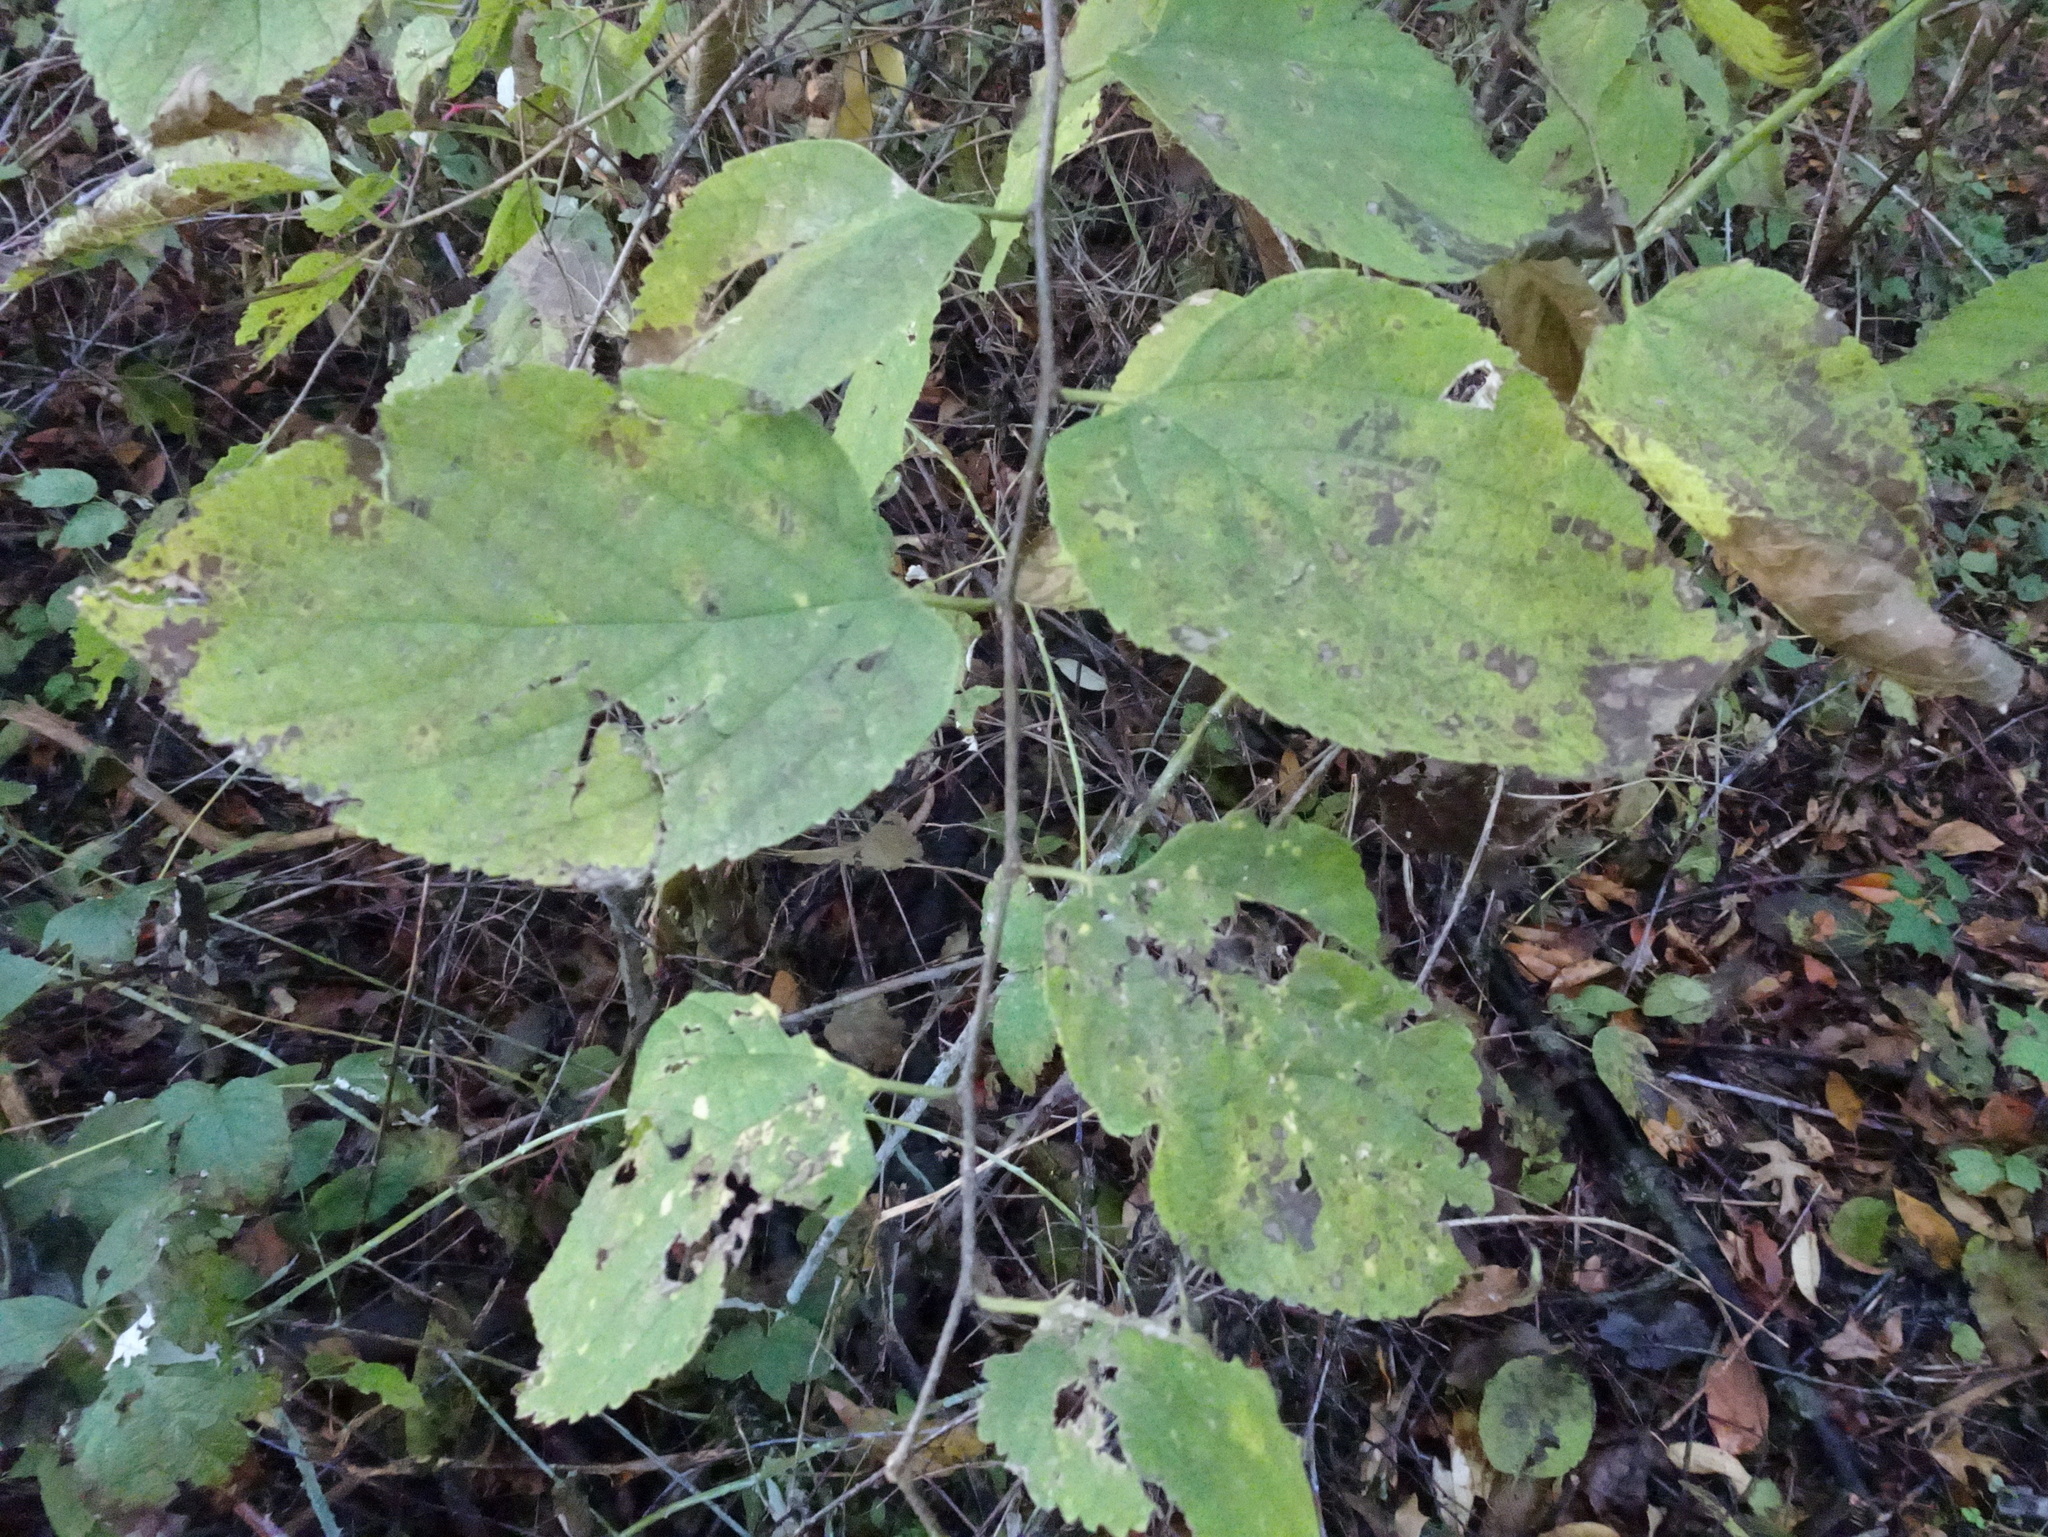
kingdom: Plantae
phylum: Tracheophyta
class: Magnoliopsida
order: Rosales
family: Cannabaceae
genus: Celtis
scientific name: Celtis occidentalis
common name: Common hackberry
